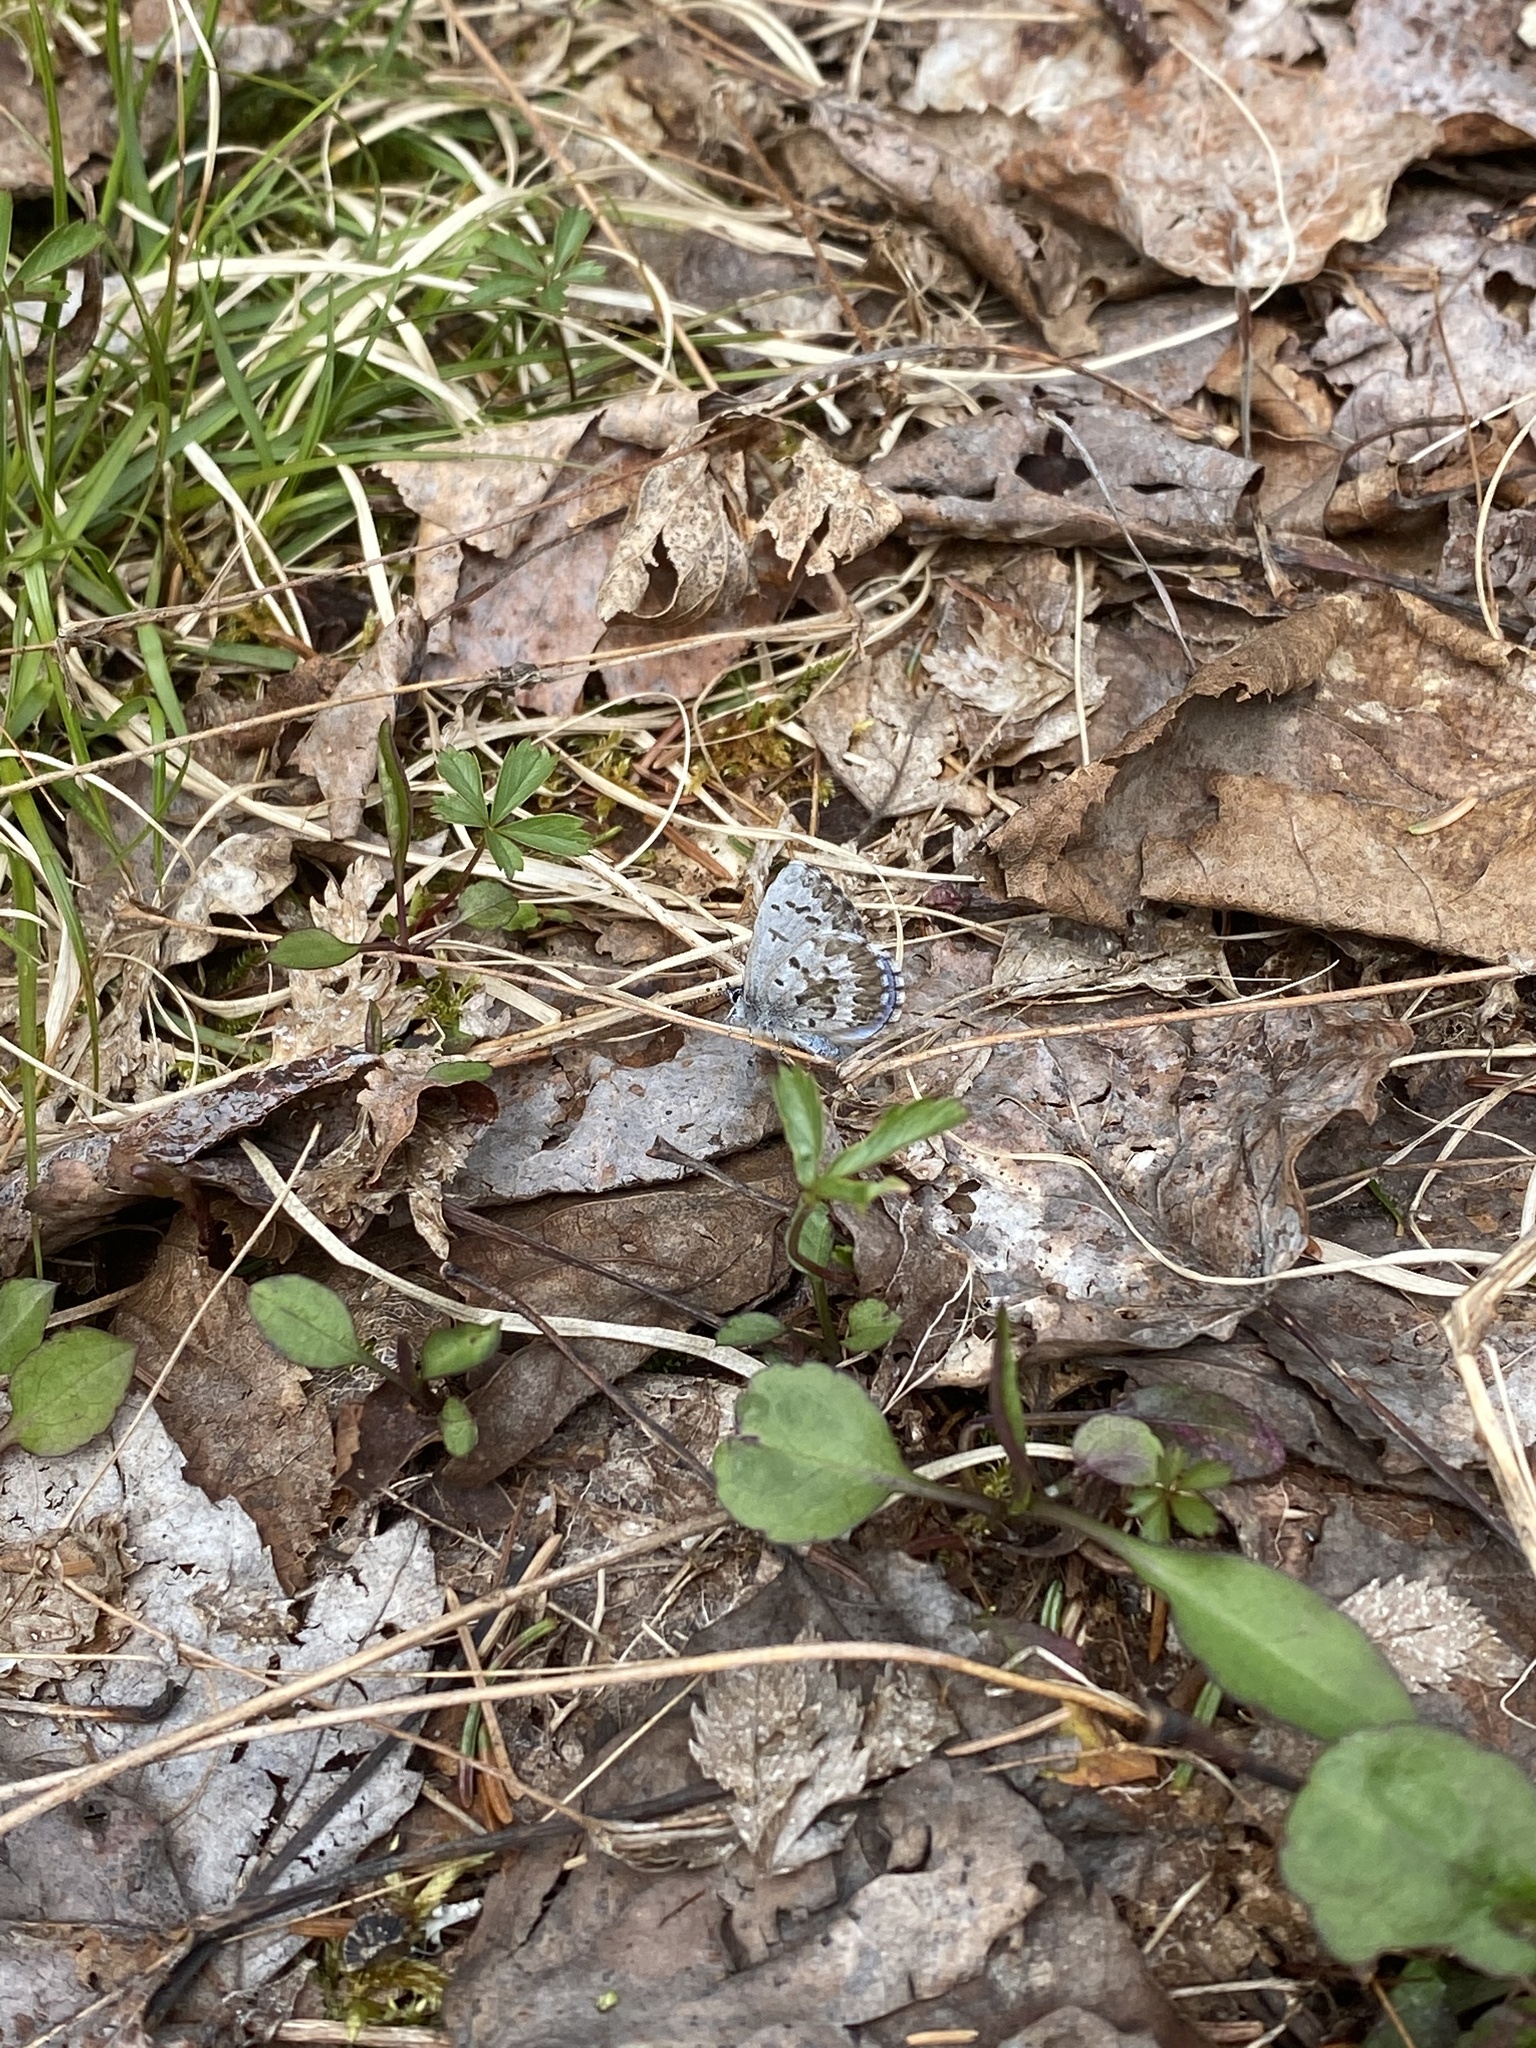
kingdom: Animalia
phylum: Arthropoda
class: Insecta
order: Lepidoptera
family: Lycaenidae
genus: Celastrina
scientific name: Celastrina lucia
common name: Lucia azure
